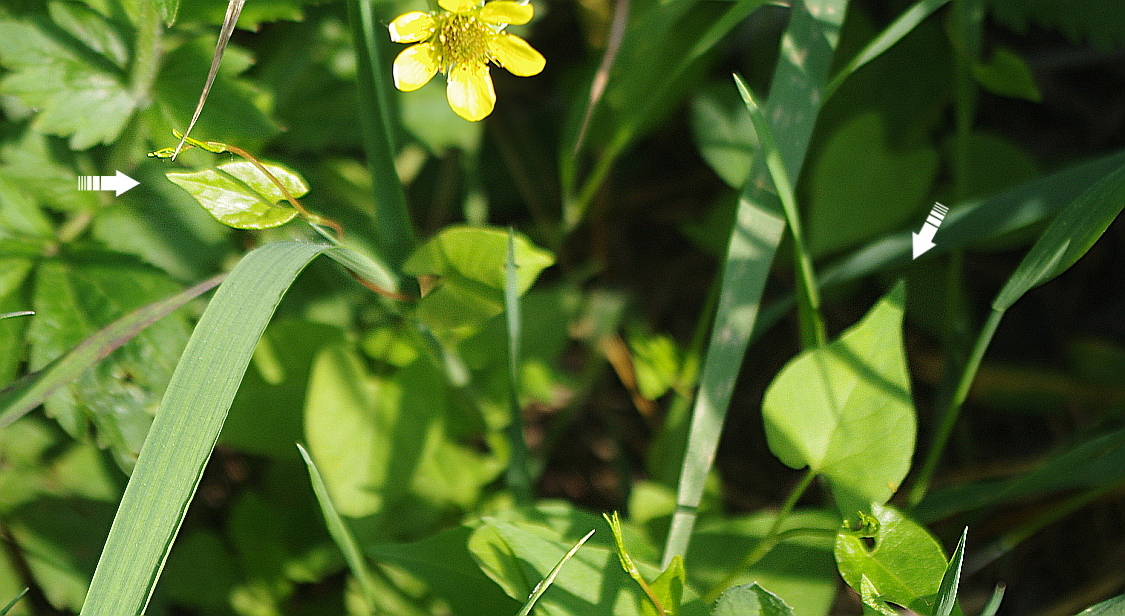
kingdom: Plantae
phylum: Tracheophyta
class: Magnoliopsida
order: Caryophyllales
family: Polygonaceae
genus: Fallopia
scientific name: Fallopia convolvulus
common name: Black bindweed
